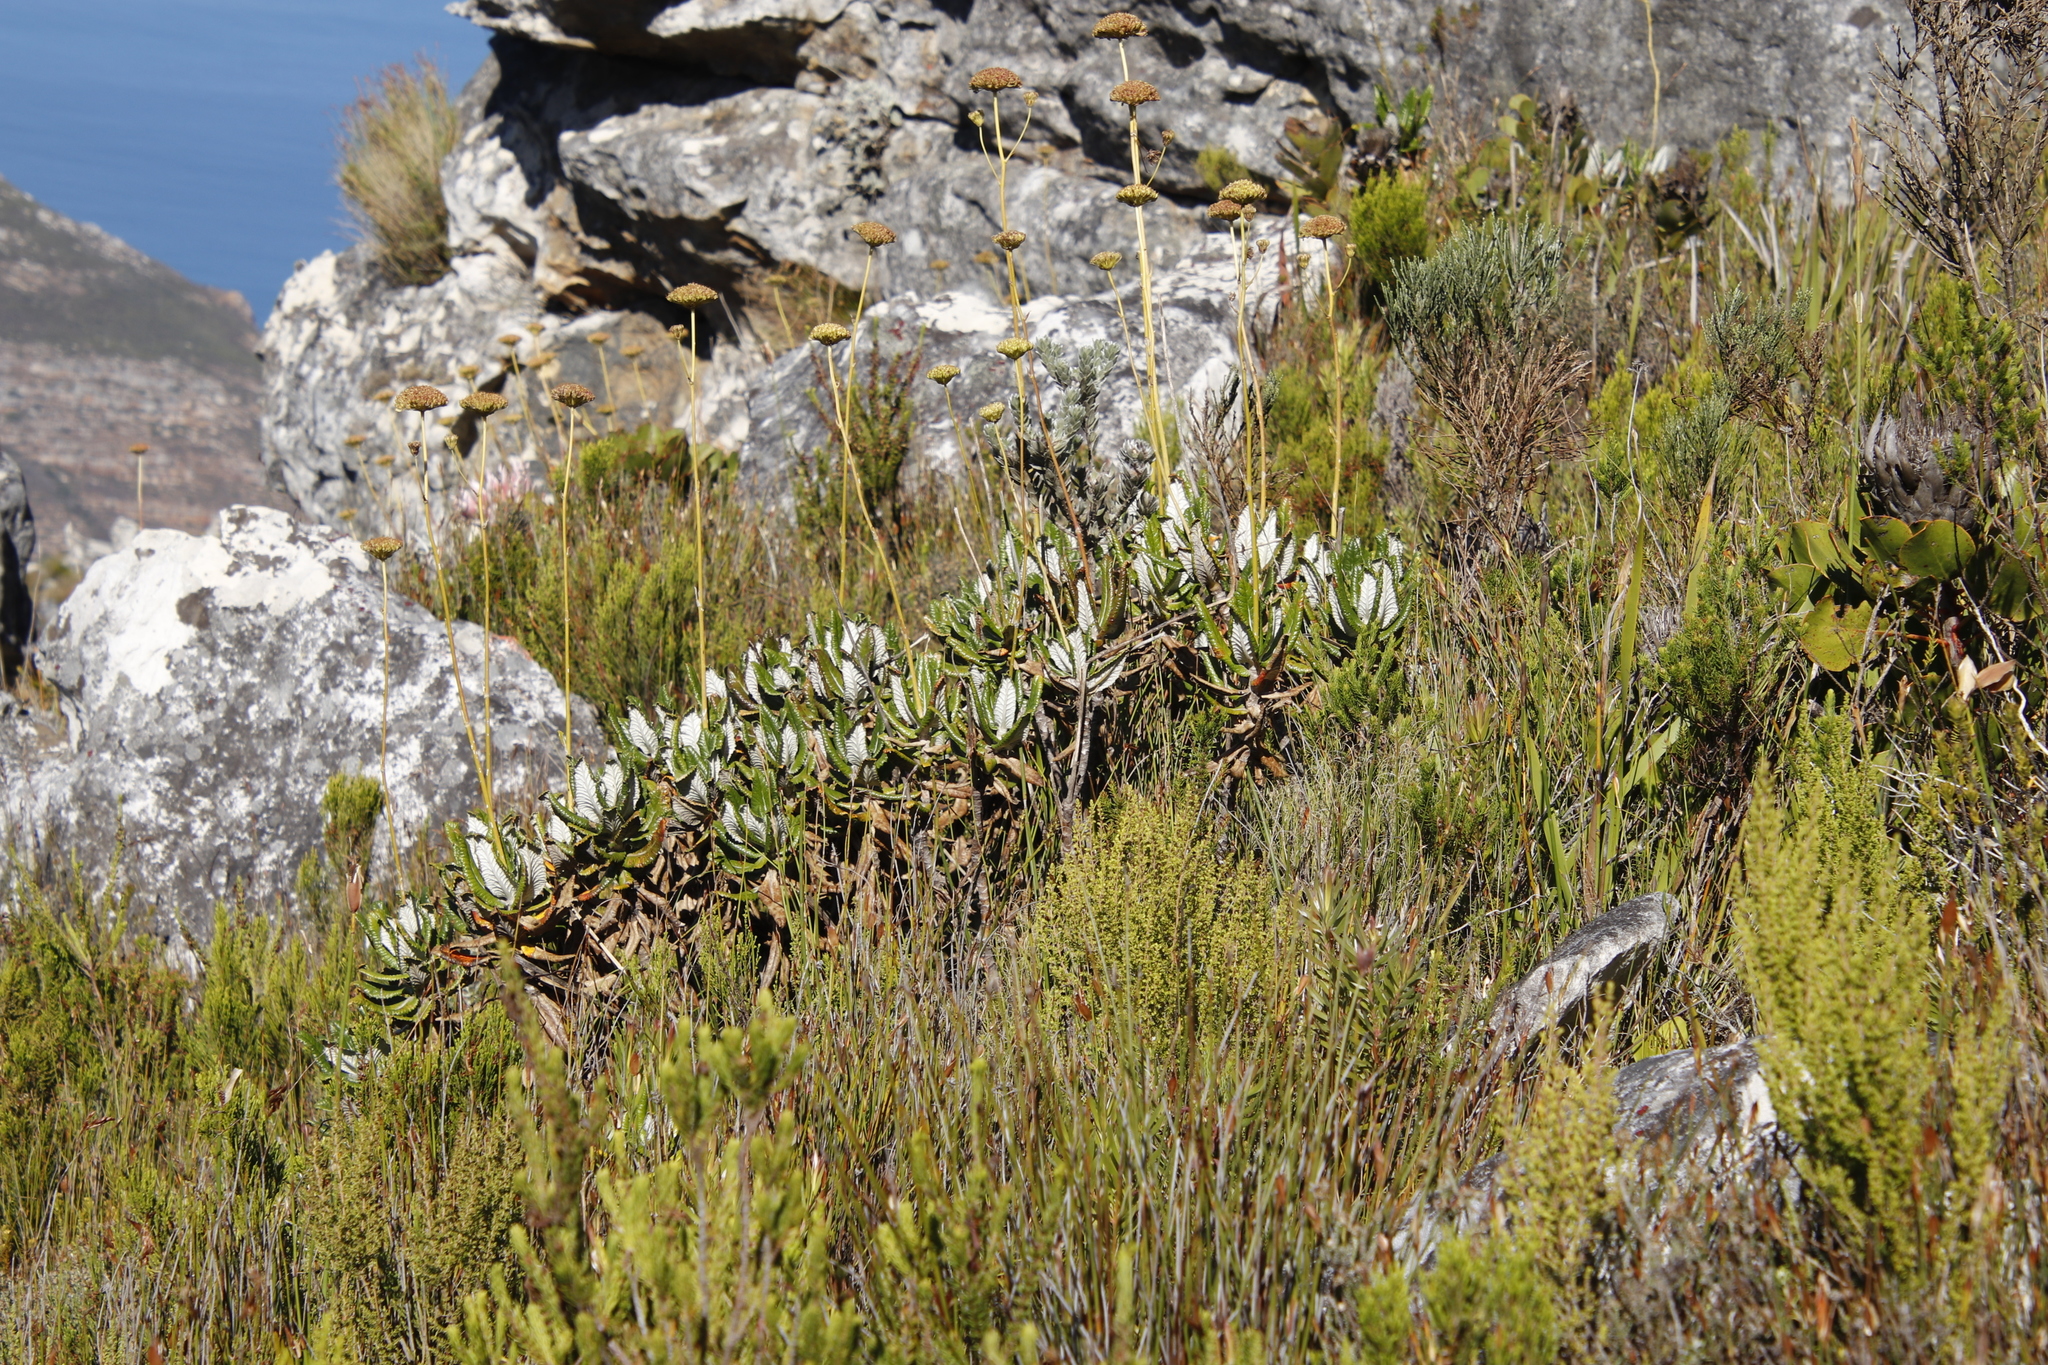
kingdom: Plantae
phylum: Tracheophyta
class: Magnoliopsida
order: Apiales
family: Apiaceae
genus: Hermas
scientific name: Hermas villosa
